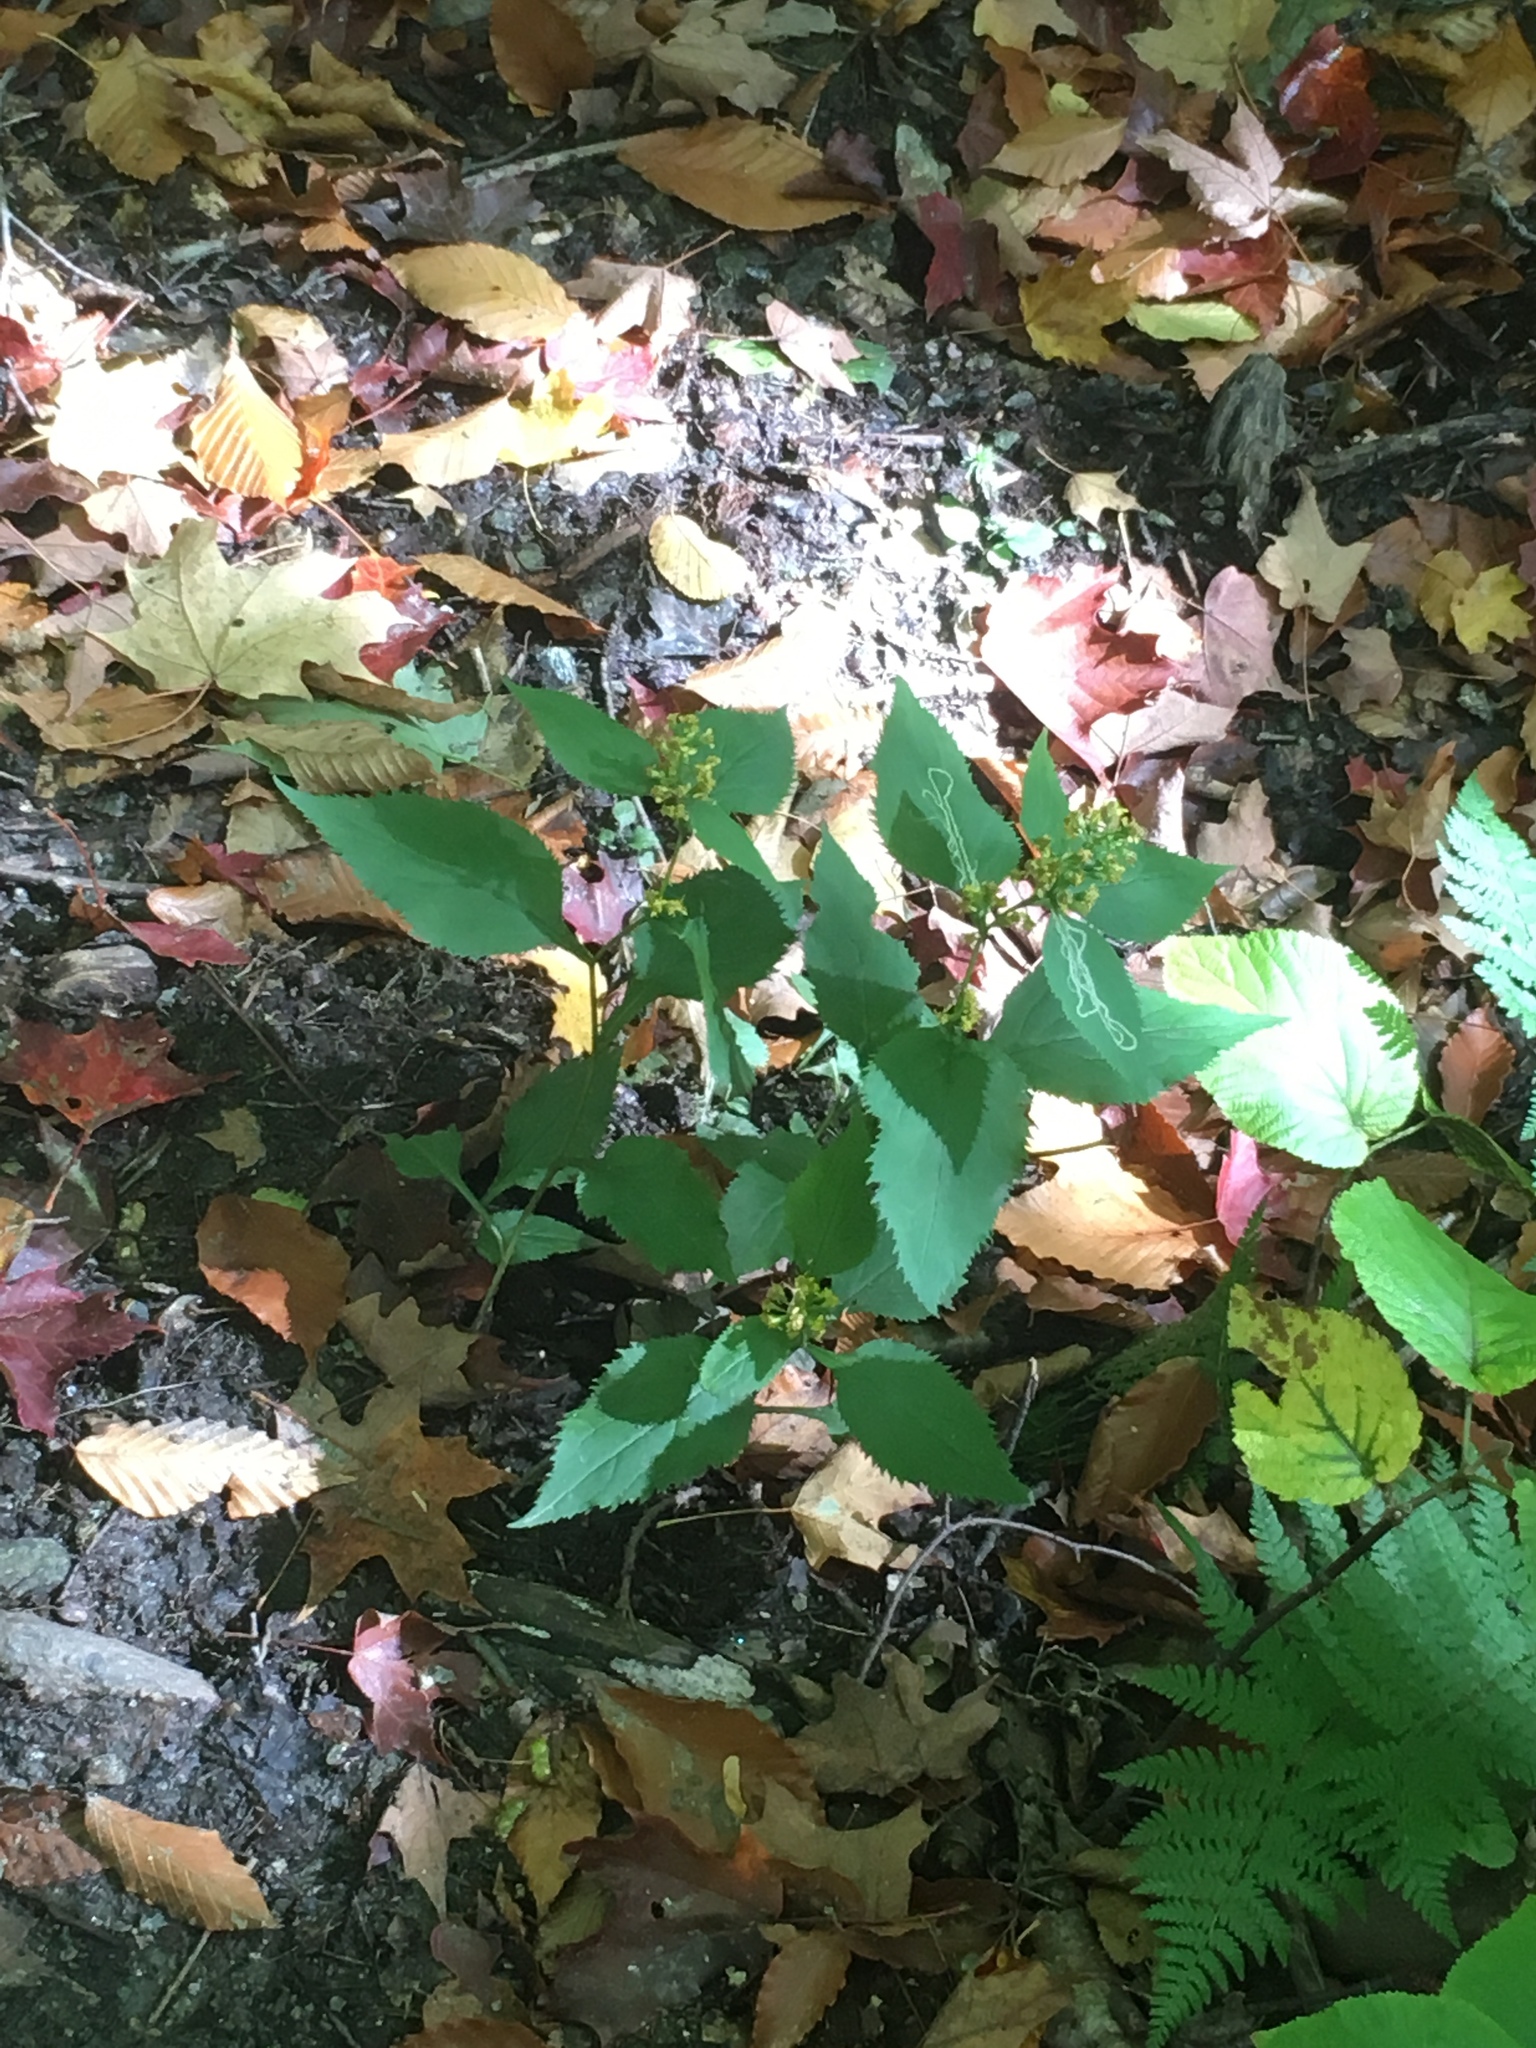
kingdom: Plantae
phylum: Tracheophyta
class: Magnoliopsida
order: Asterales
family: Asteraceae
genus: Solidago
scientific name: Solidago flexicaulis
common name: Zig-zag goldenrod
